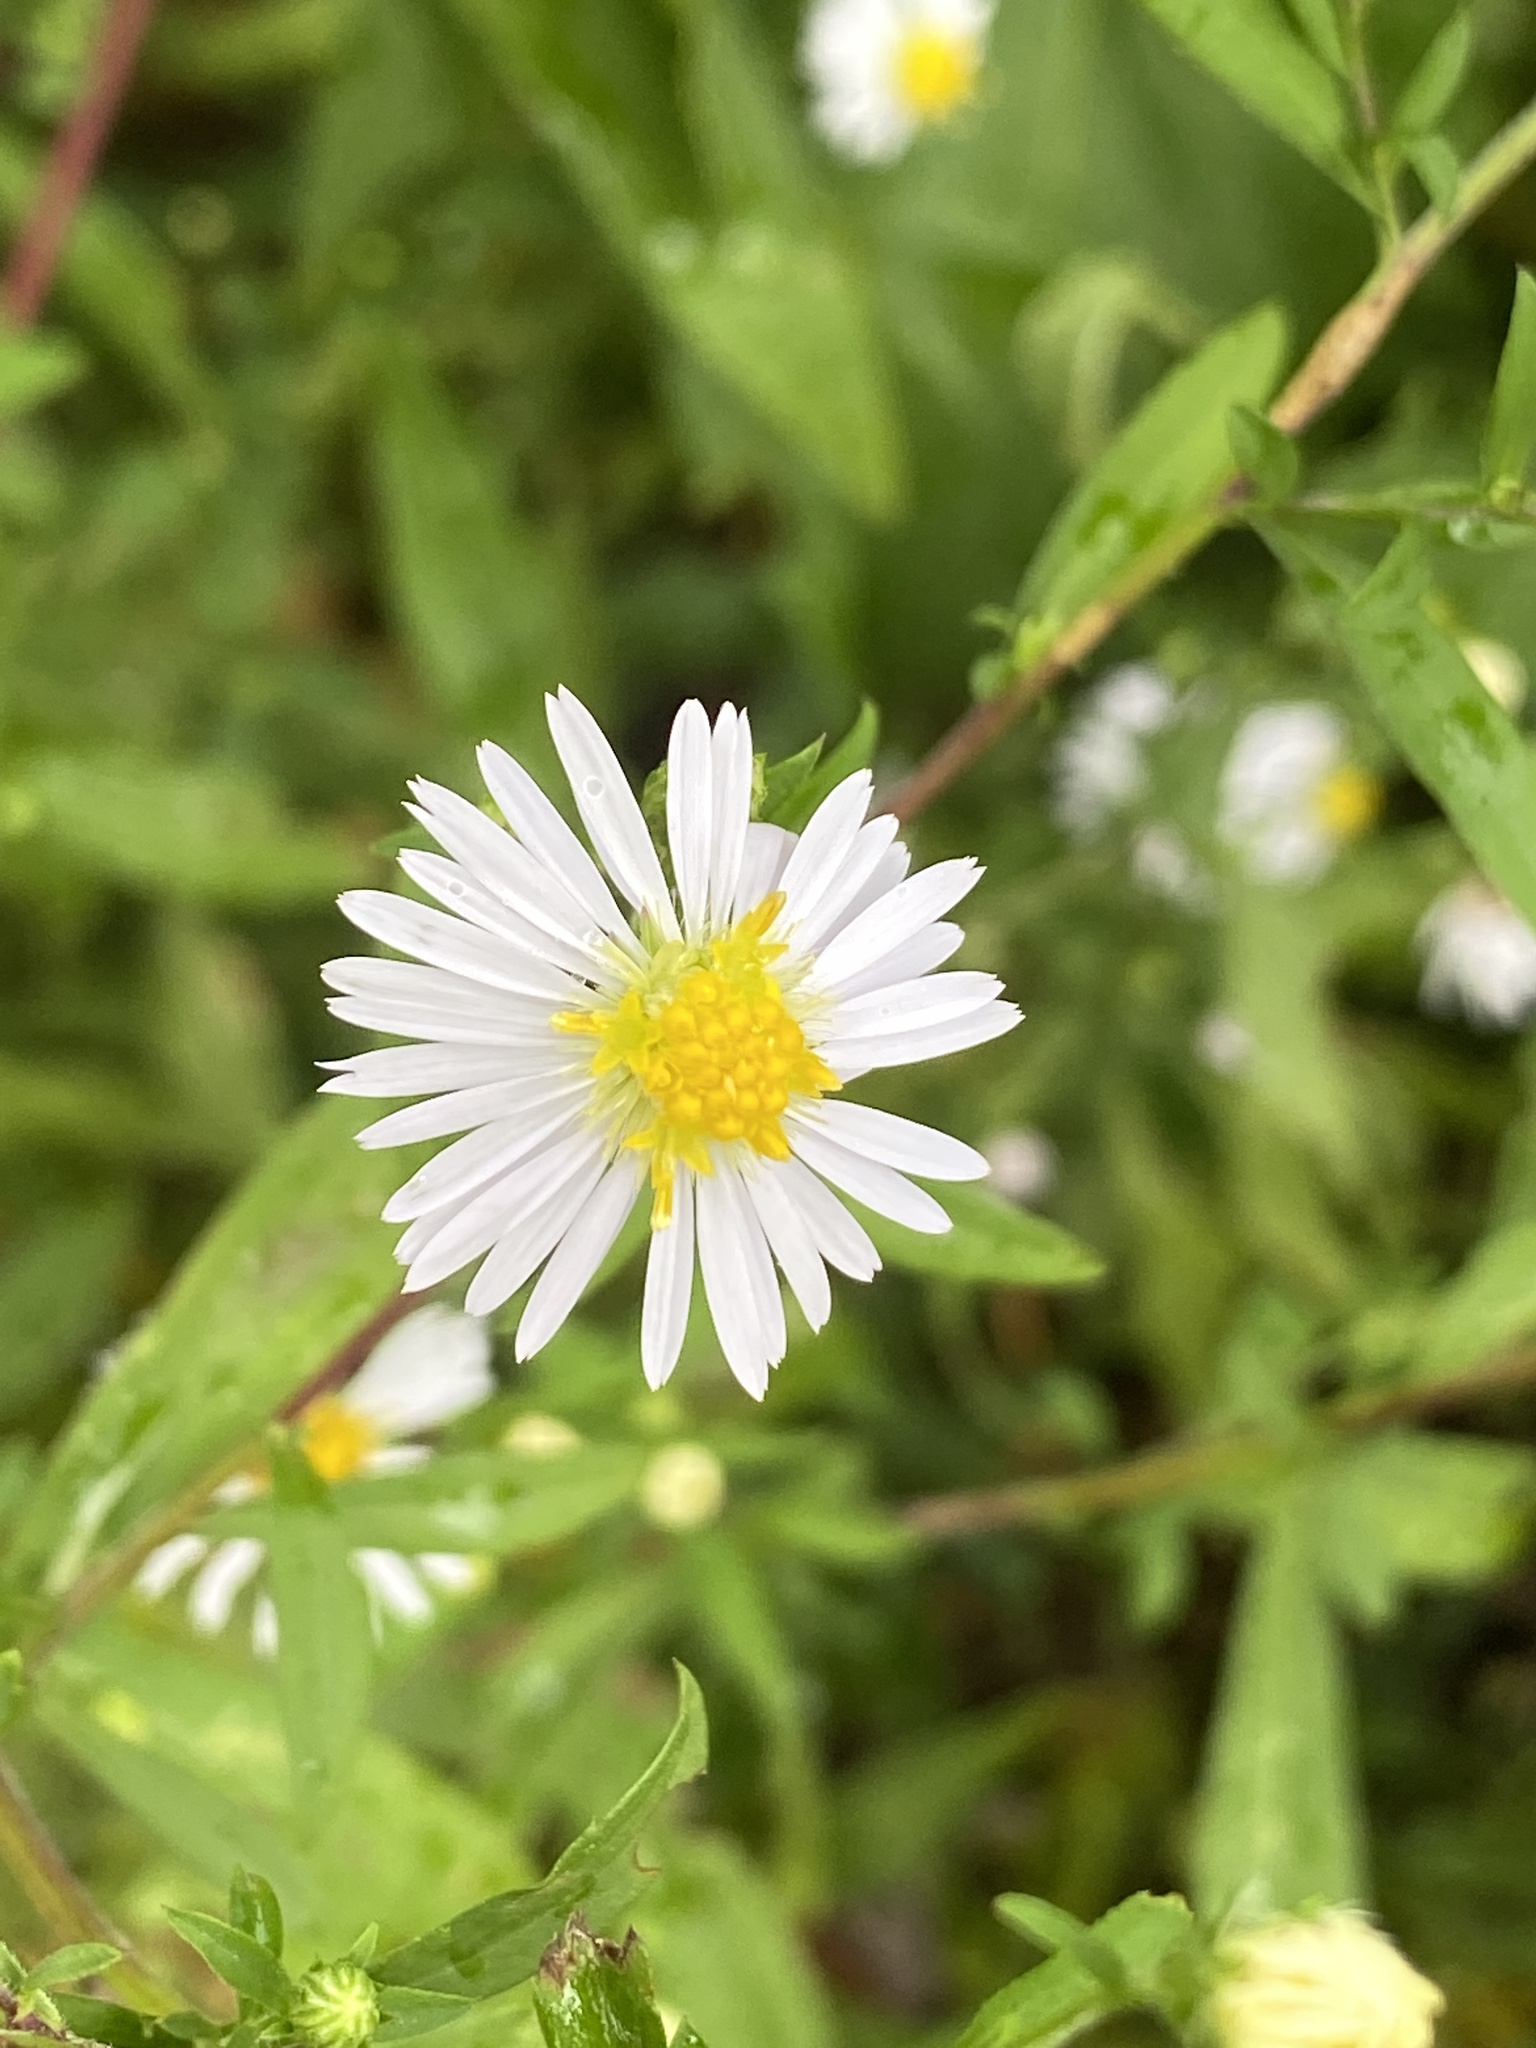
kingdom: Plantae
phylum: Tracheophyta
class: Magnoliopsida
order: Asterales
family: Asteraceae
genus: Symphyotrichum
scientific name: Symphyotrichum lanceolatum
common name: Panicled aster
